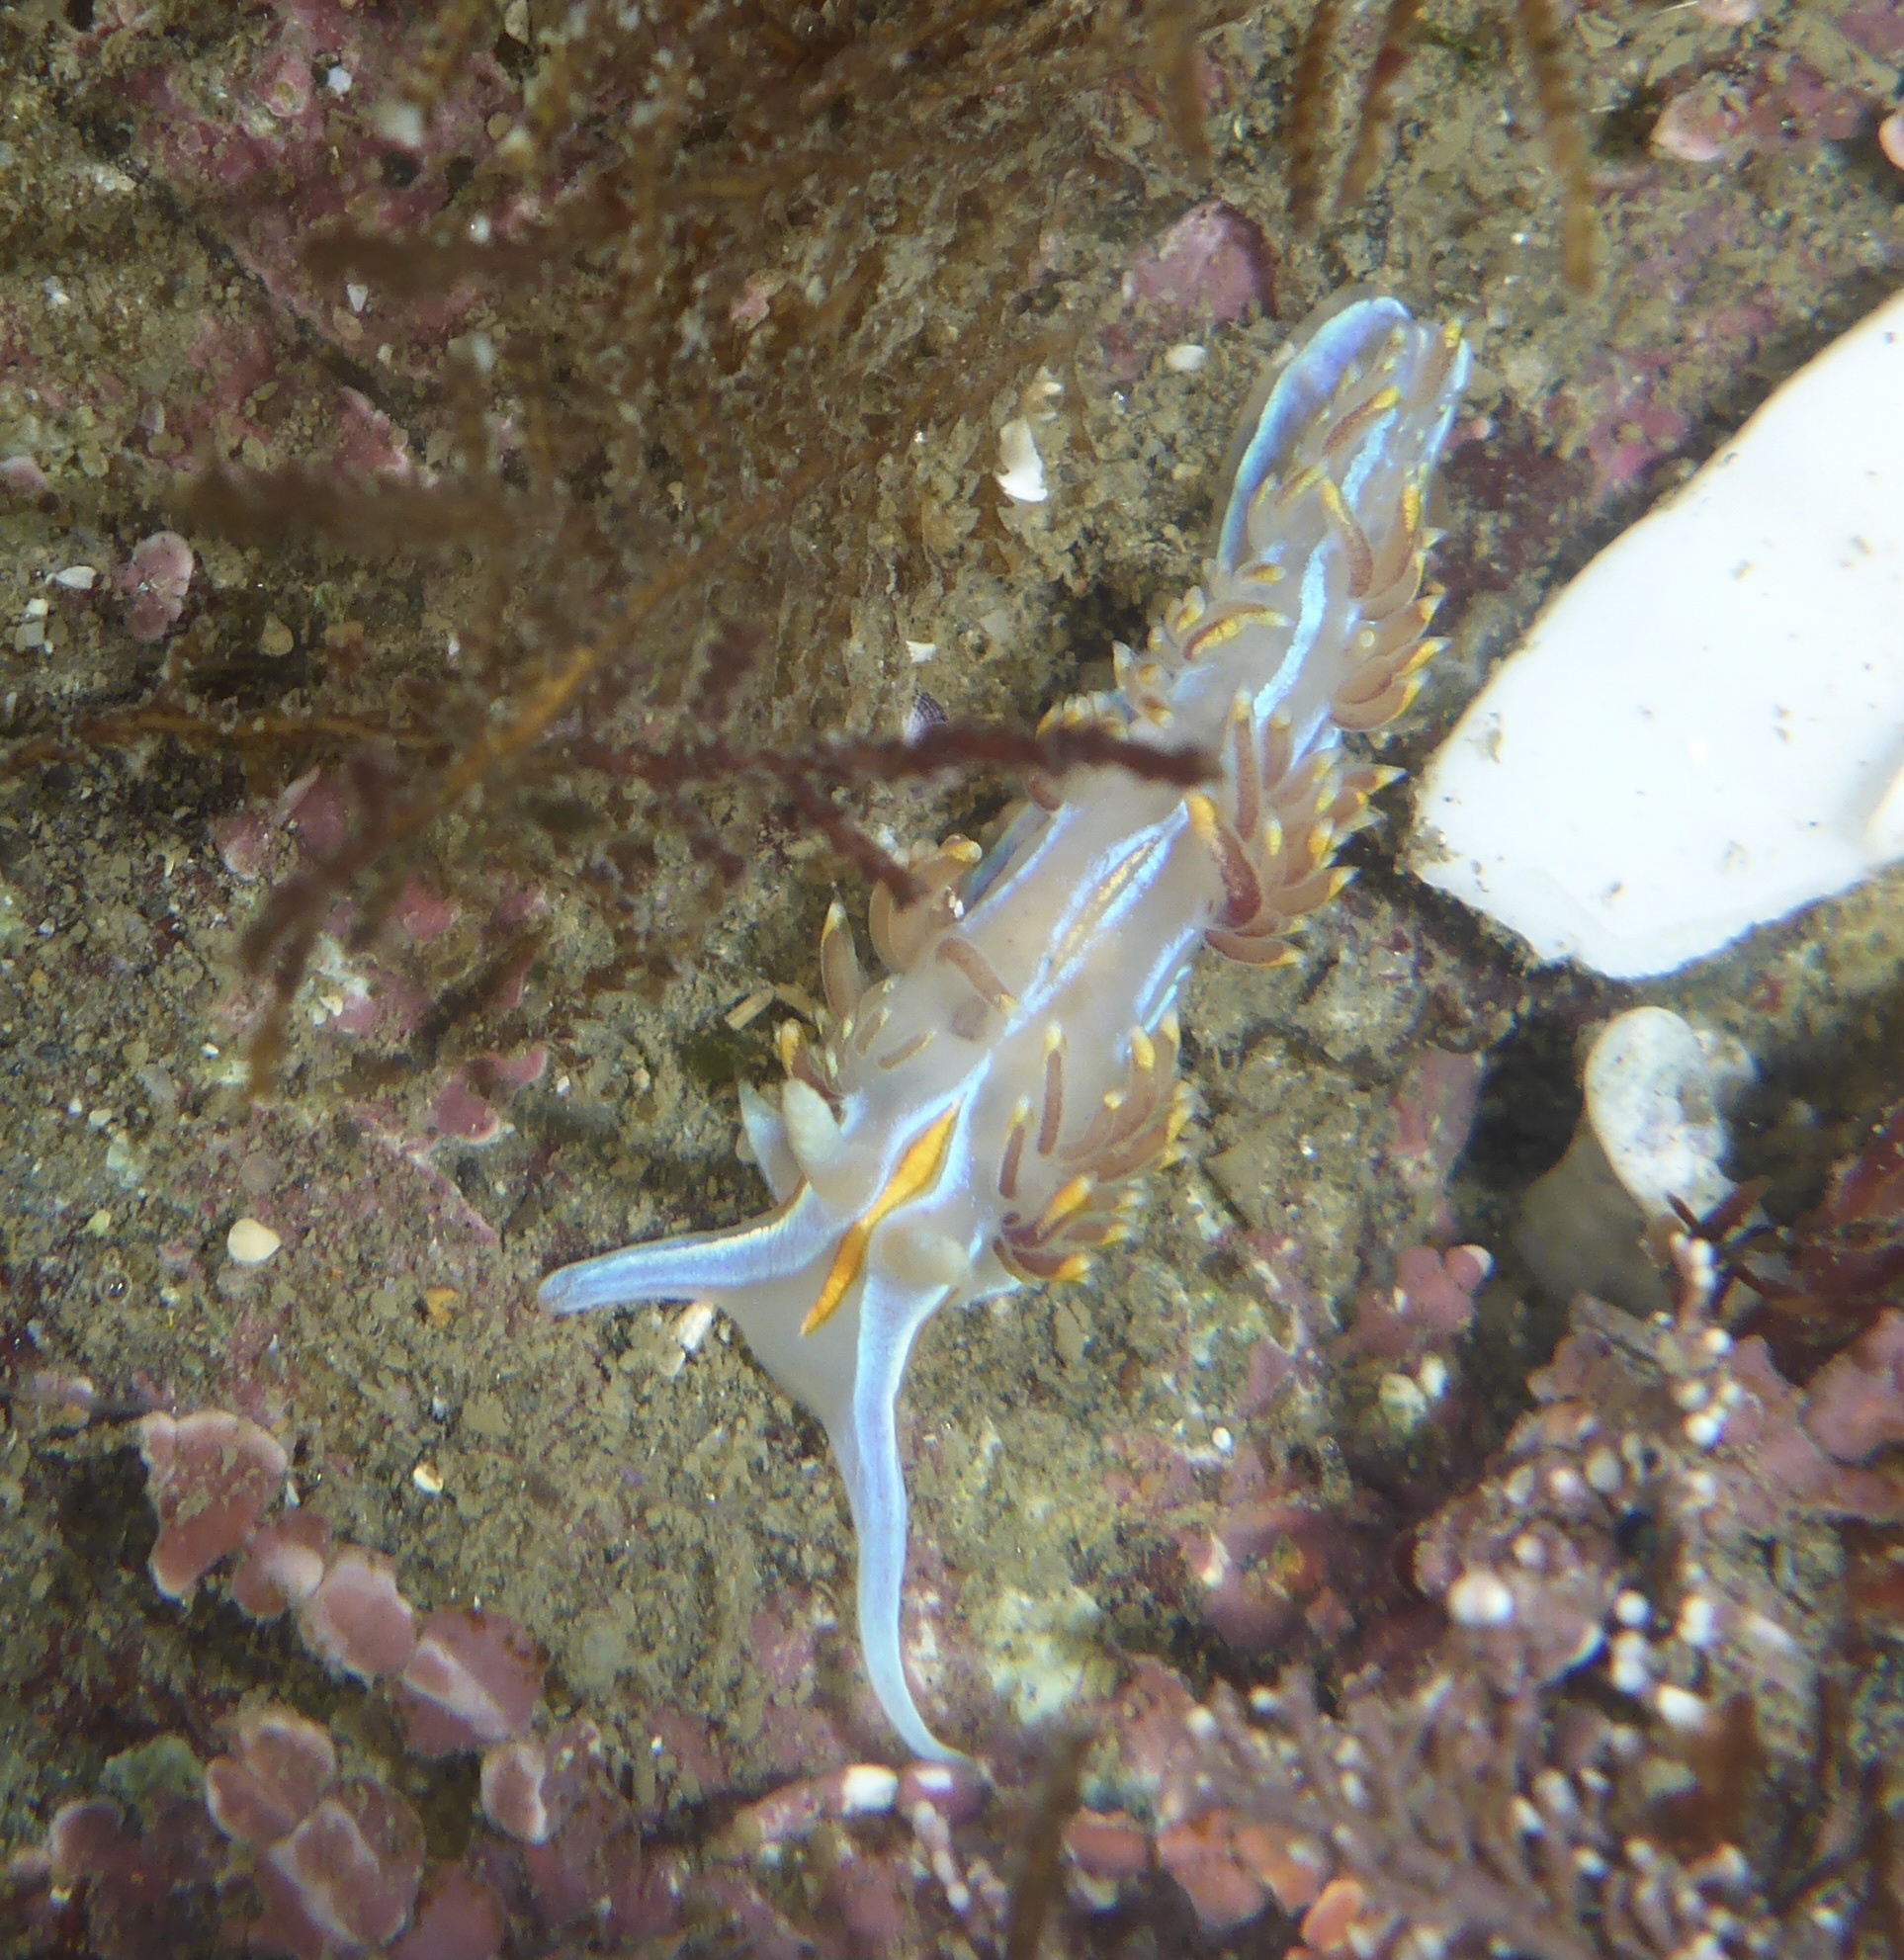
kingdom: Animalia
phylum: Mollusca
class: Gastropoda
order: Nudibranchia
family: Myrrhinidae
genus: Hermissenda
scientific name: Hermissenda opalescens
